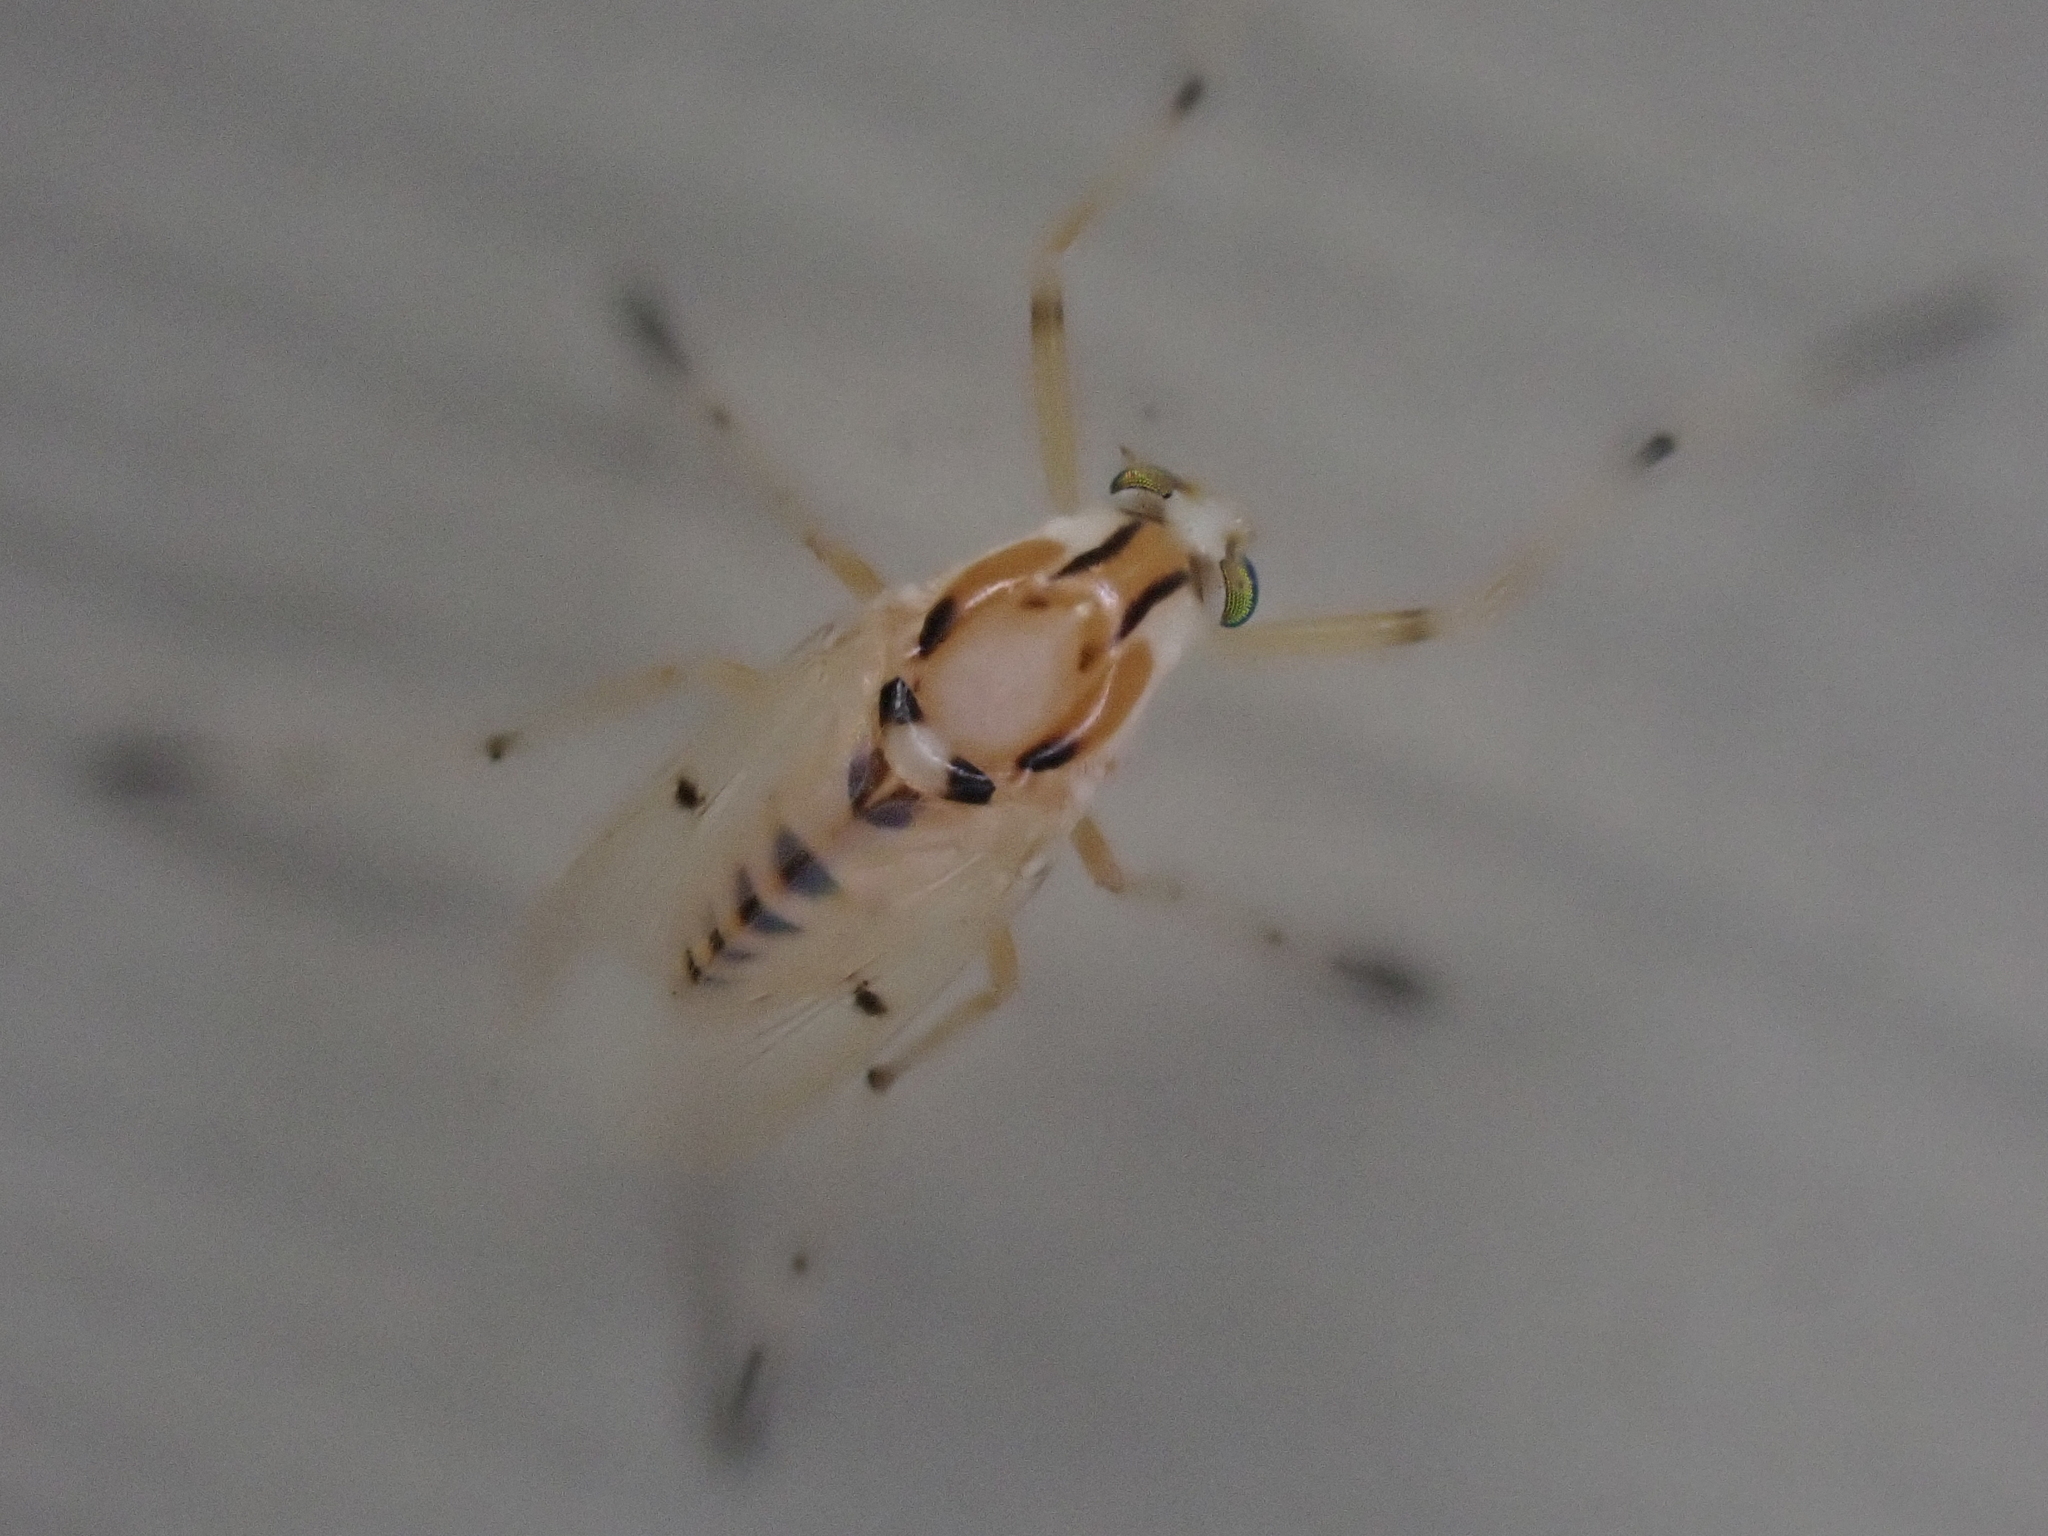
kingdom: Animalia
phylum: Arthropoda
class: Insecta
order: Diptera
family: Chironomidae
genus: Coelotanypus
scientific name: Coelotanypus concinnus
